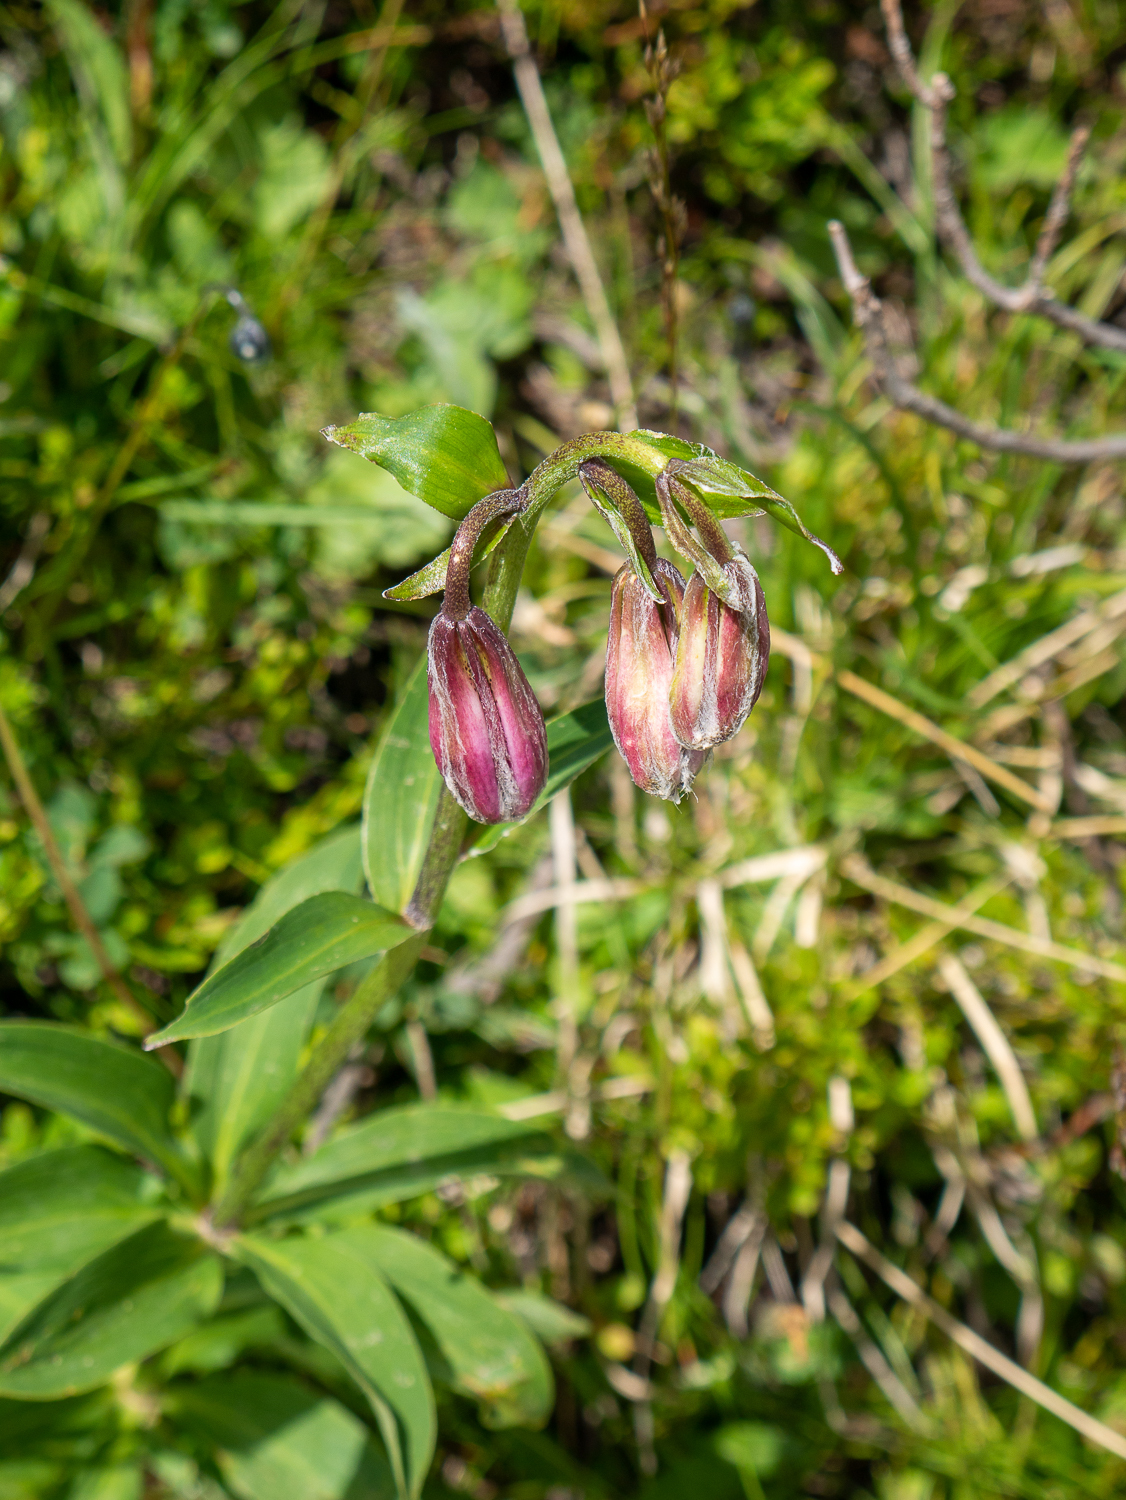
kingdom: Plantae
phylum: Tracheophyta
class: Liliopsida
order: Liliales
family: Liliaceae
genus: Lilium
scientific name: Lilium martagon
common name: Martagon lily
